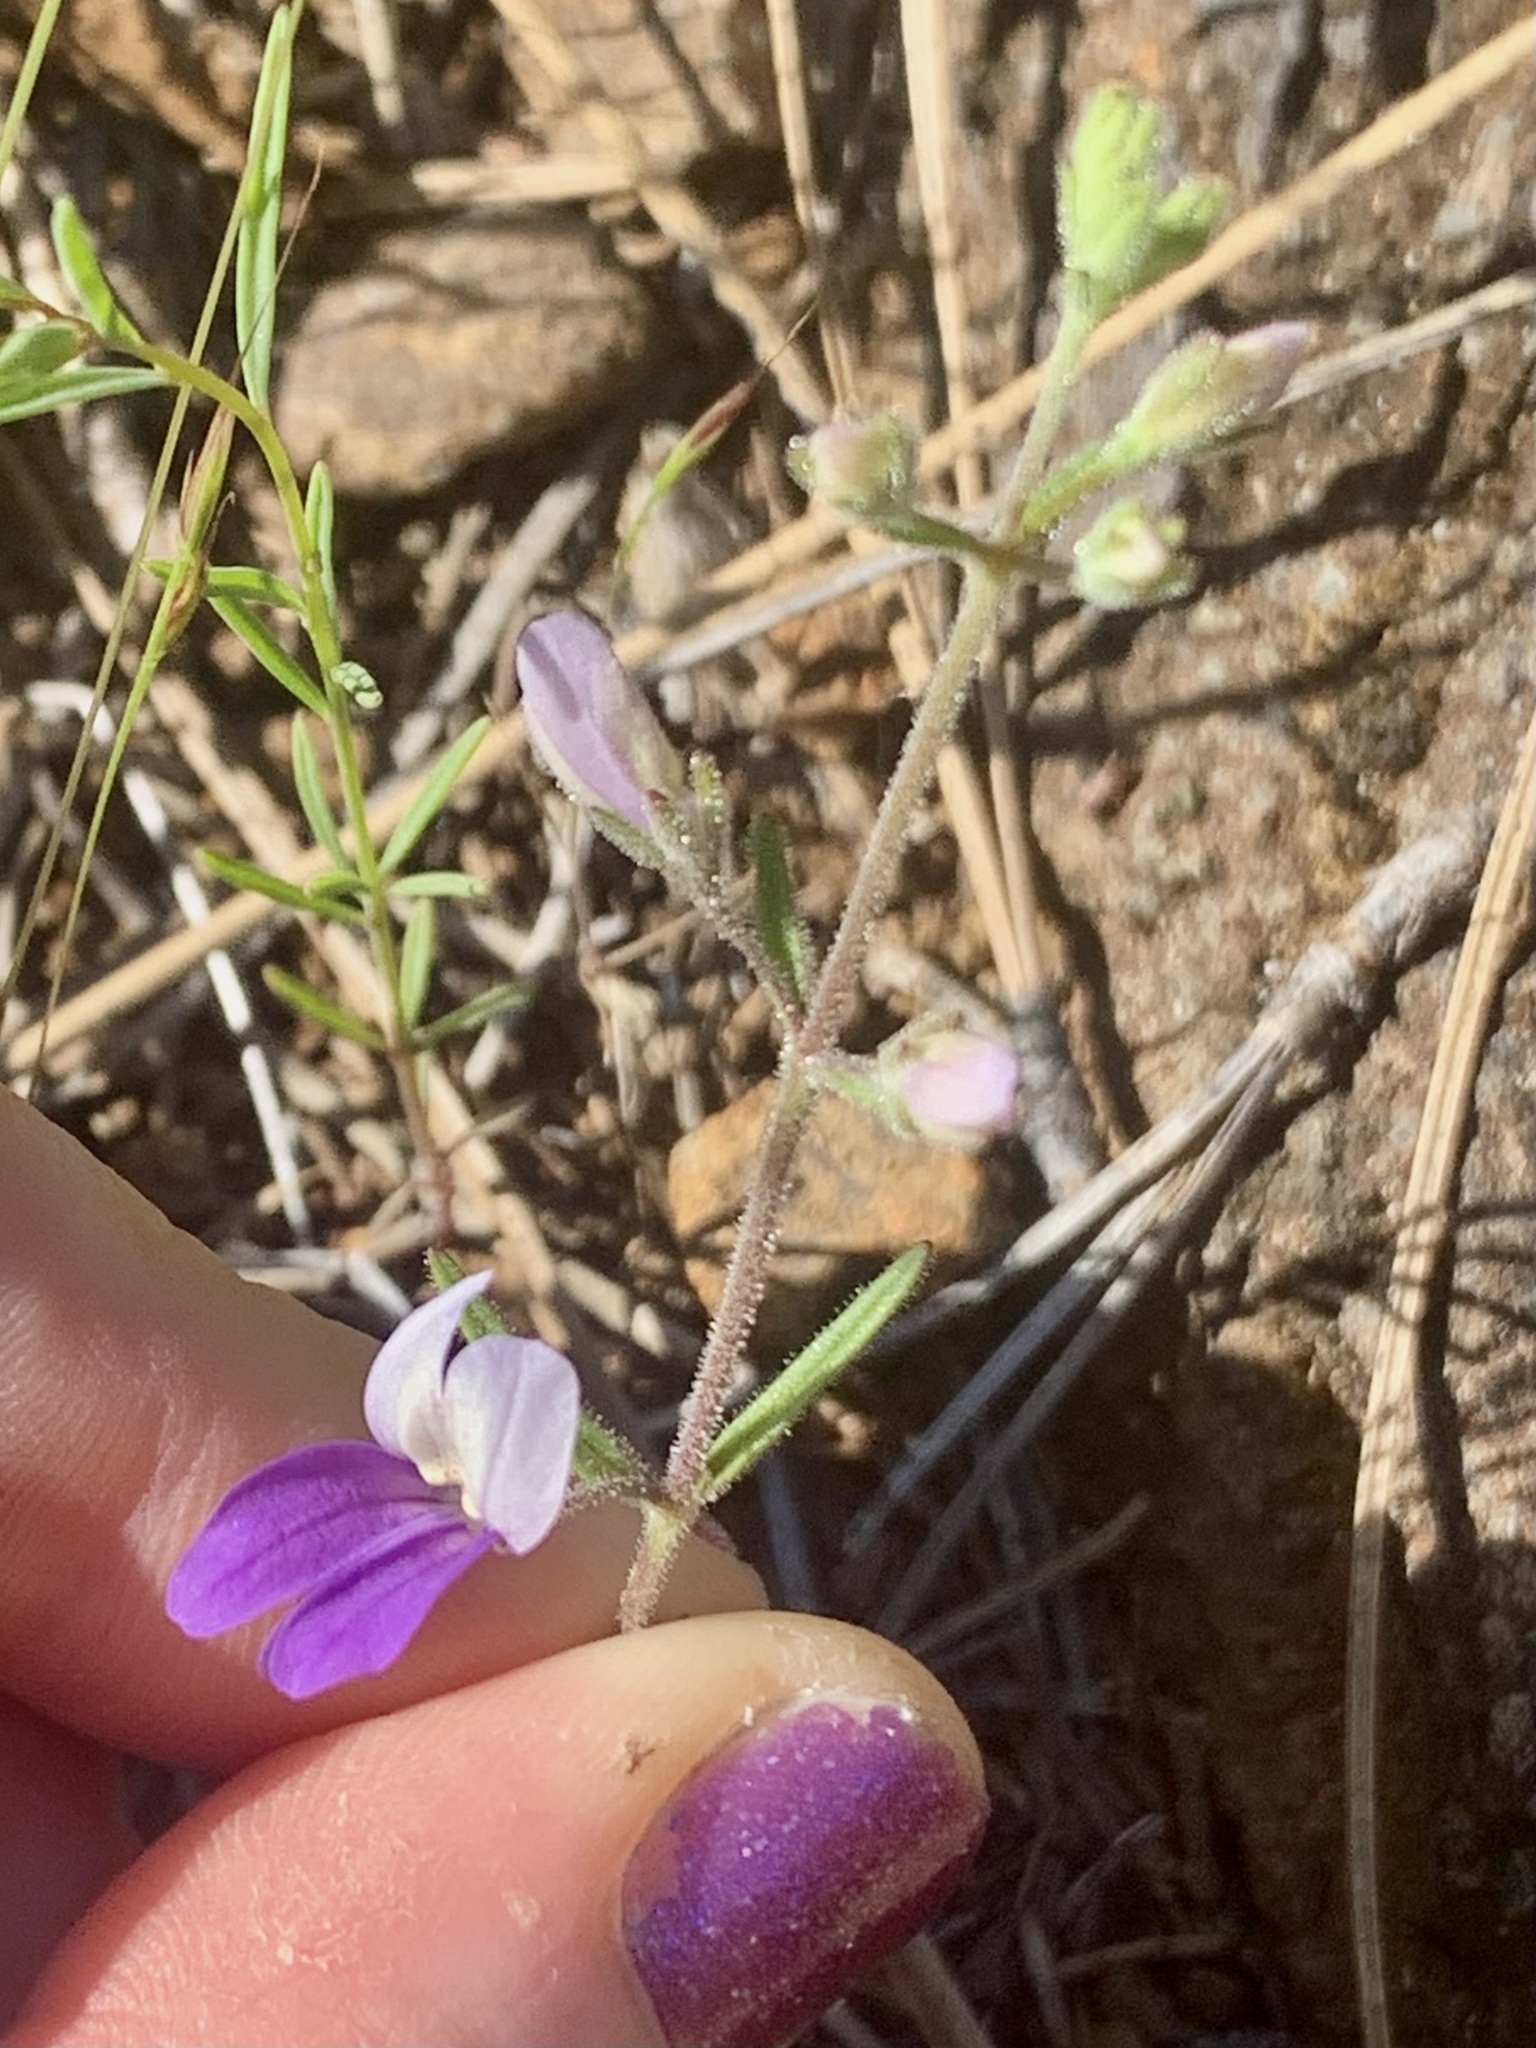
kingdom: Plantae
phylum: Tracheophyta
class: Magnoliopsida
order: Lamiales
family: Plantaginaceae
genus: Collinsia
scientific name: Collinsia linearis
